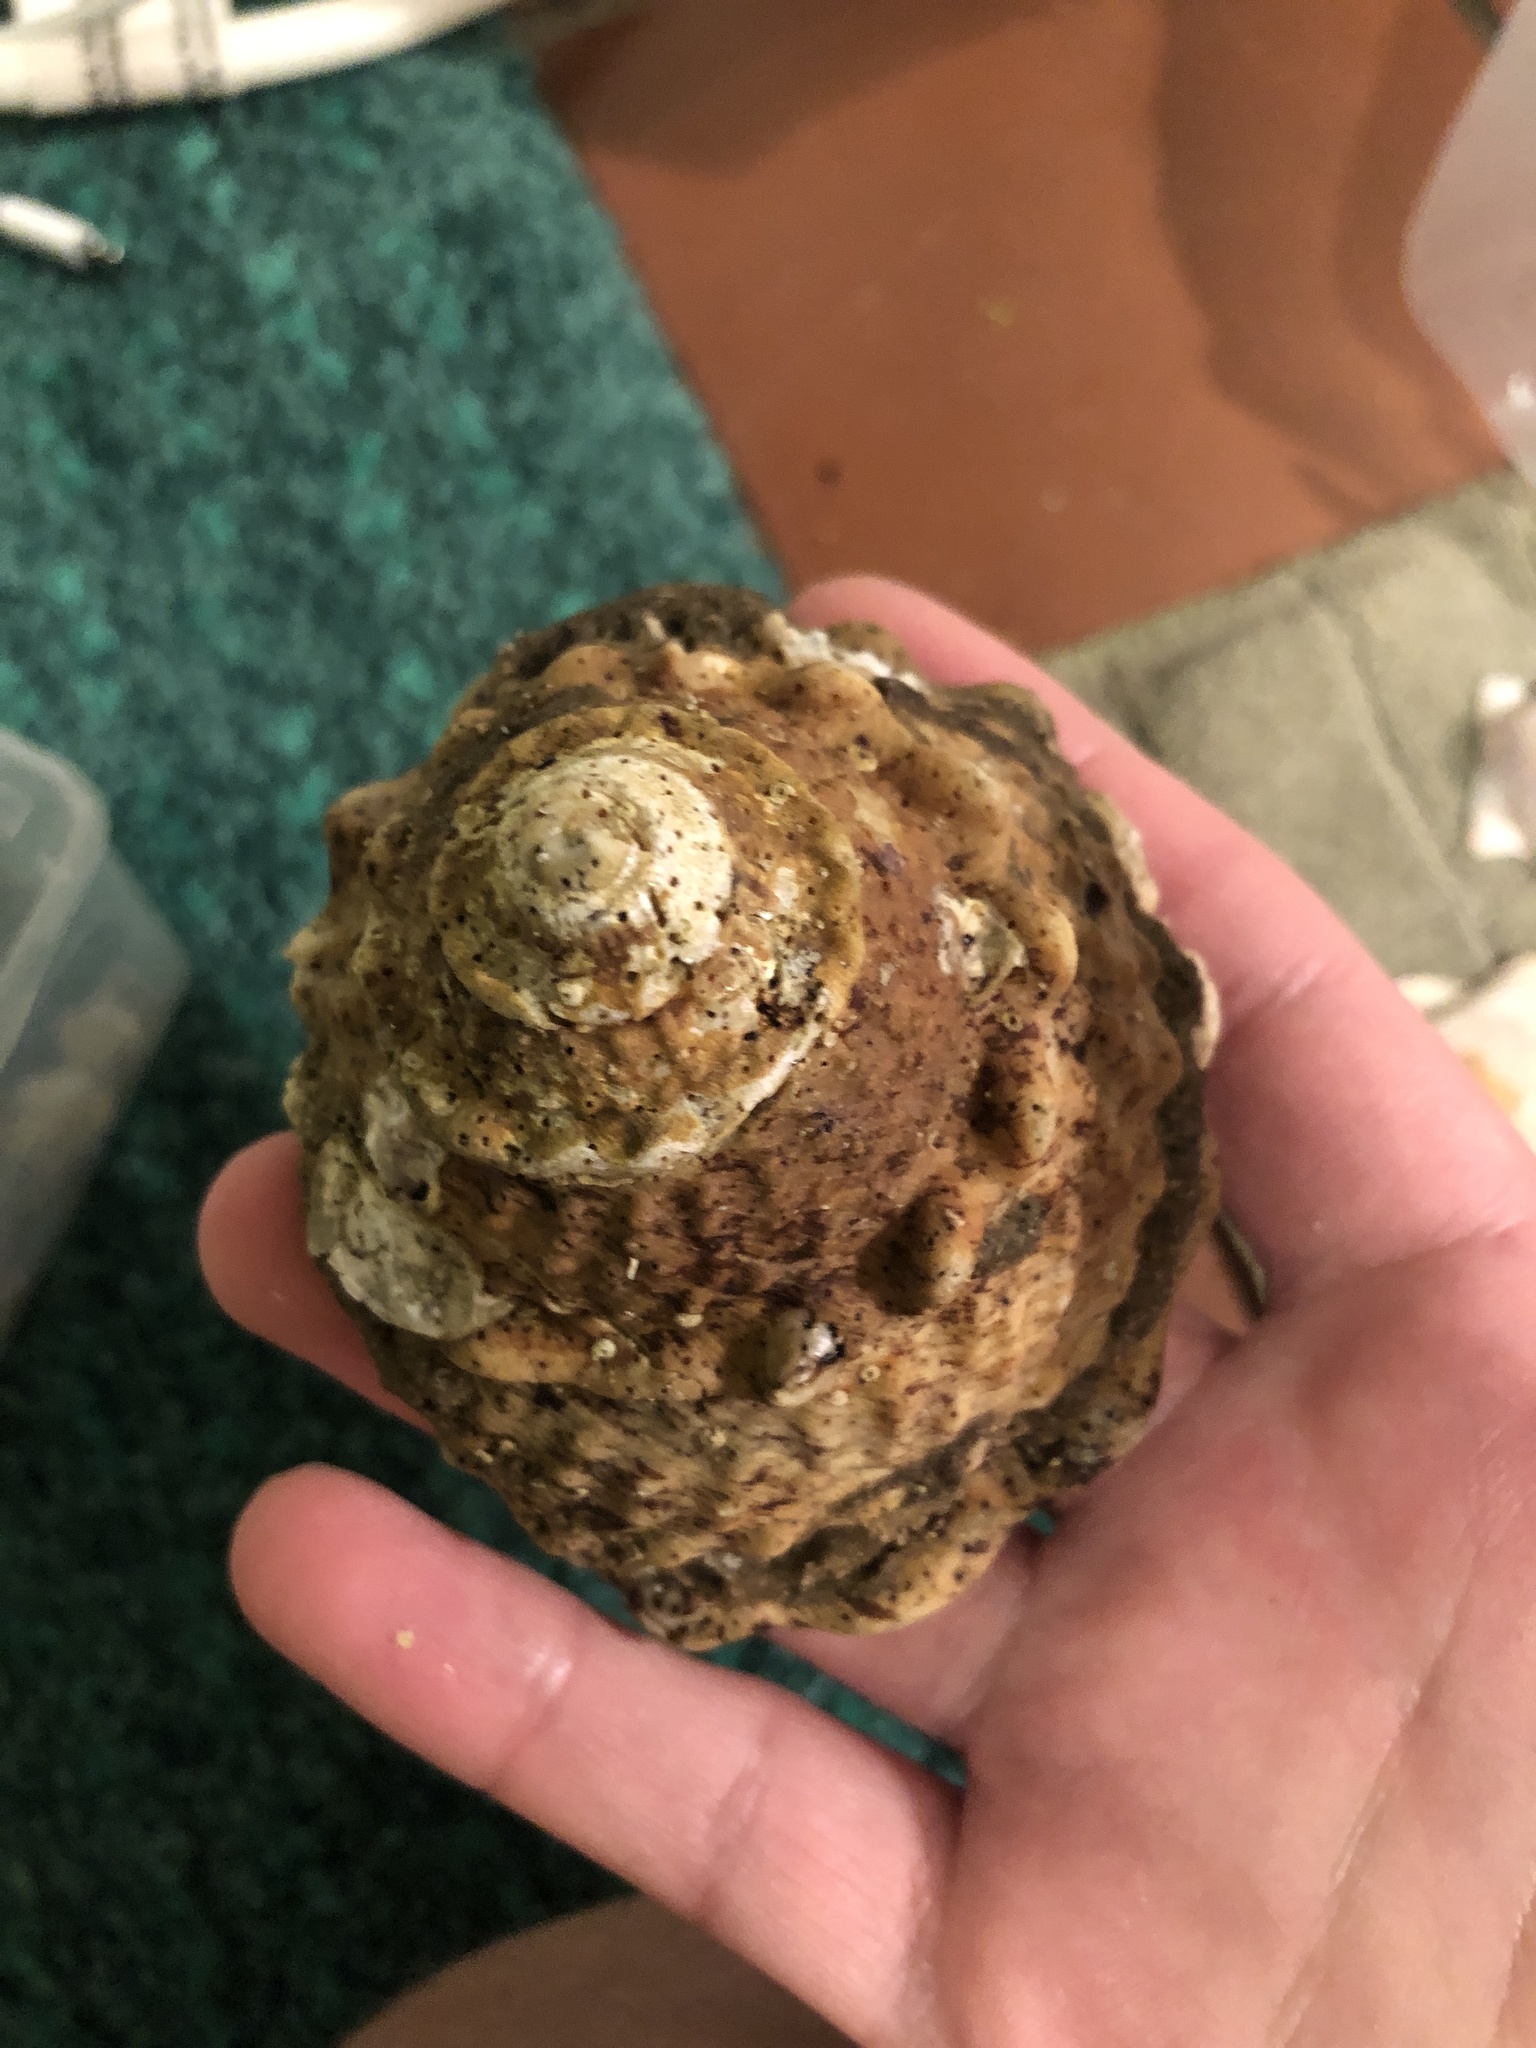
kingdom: Animalia
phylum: Mollusca
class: Gastropoda
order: Trochida
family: Turbinidae
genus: Megastraea
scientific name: Megastraea undosa
